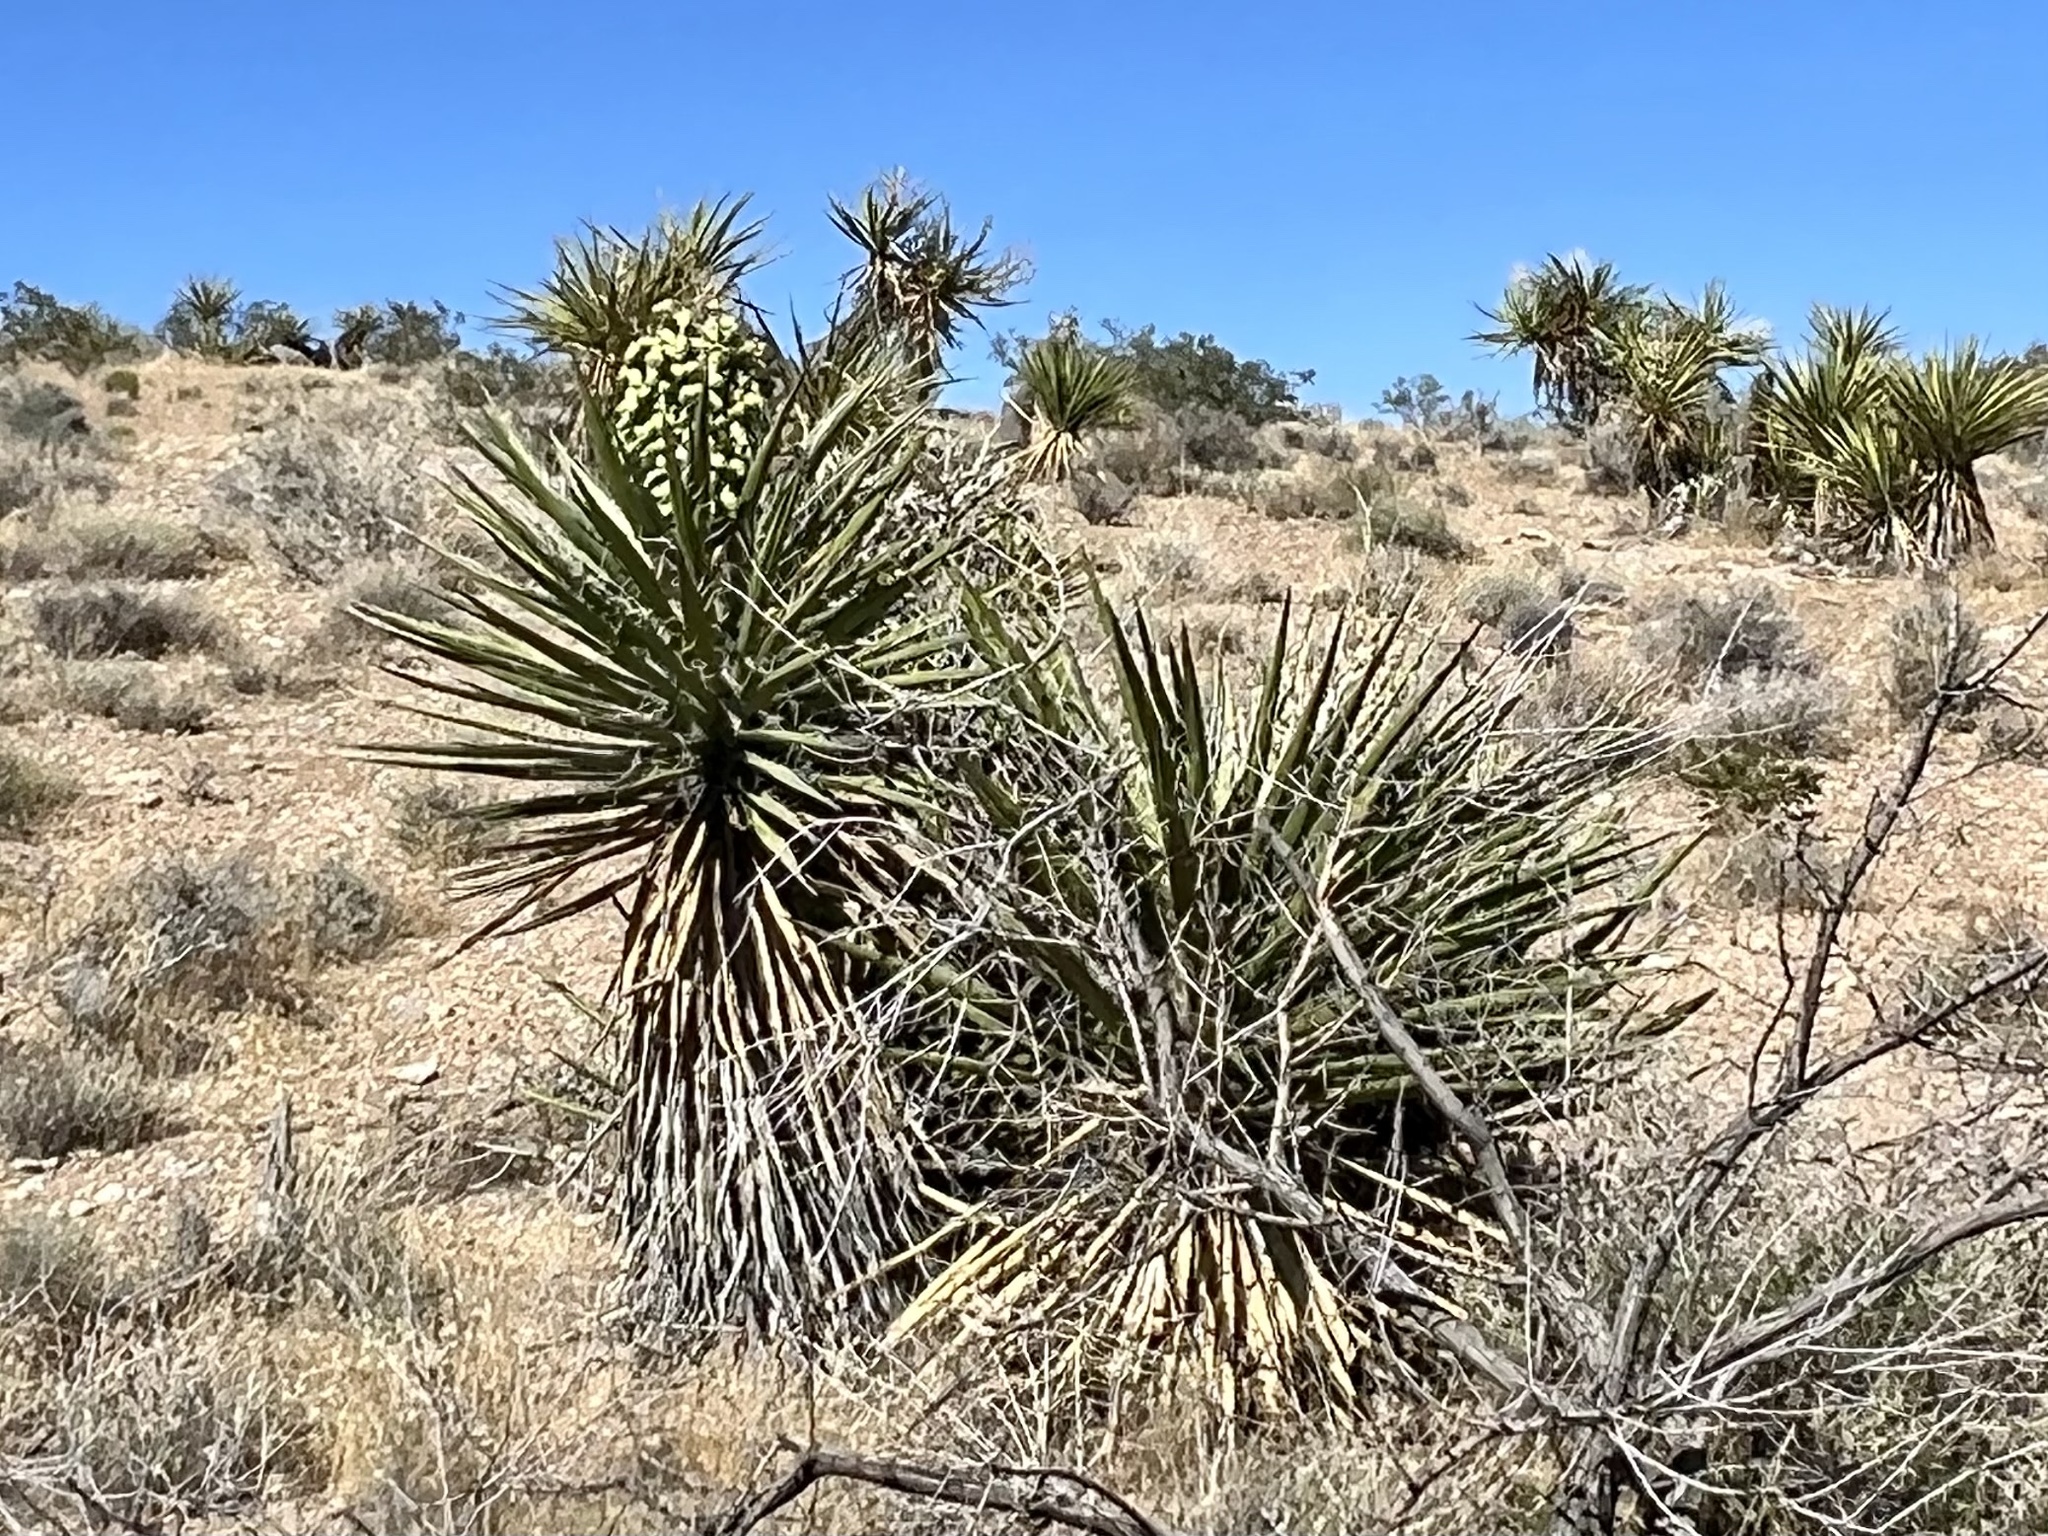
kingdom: Plantae
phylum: Tracheophyta
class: Liliopsida
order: Asparagales
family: Asparagaceae
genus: Yucca
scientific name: Yucca schidigera
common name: Mojave yucca
